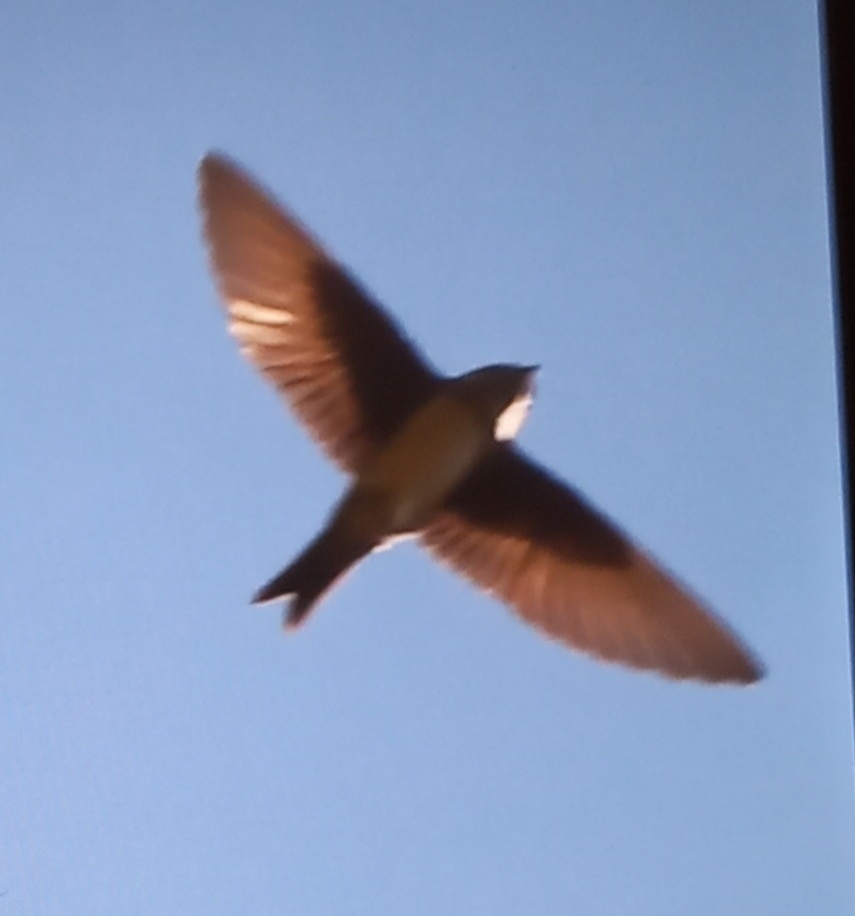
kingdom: Animalia
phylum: Chordata
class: Aves
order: Passeriformes
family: Hirundinidae
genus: Ptyonoprogne
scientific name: Ptyonoprogne rupestris
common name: Eurasian crag martin
